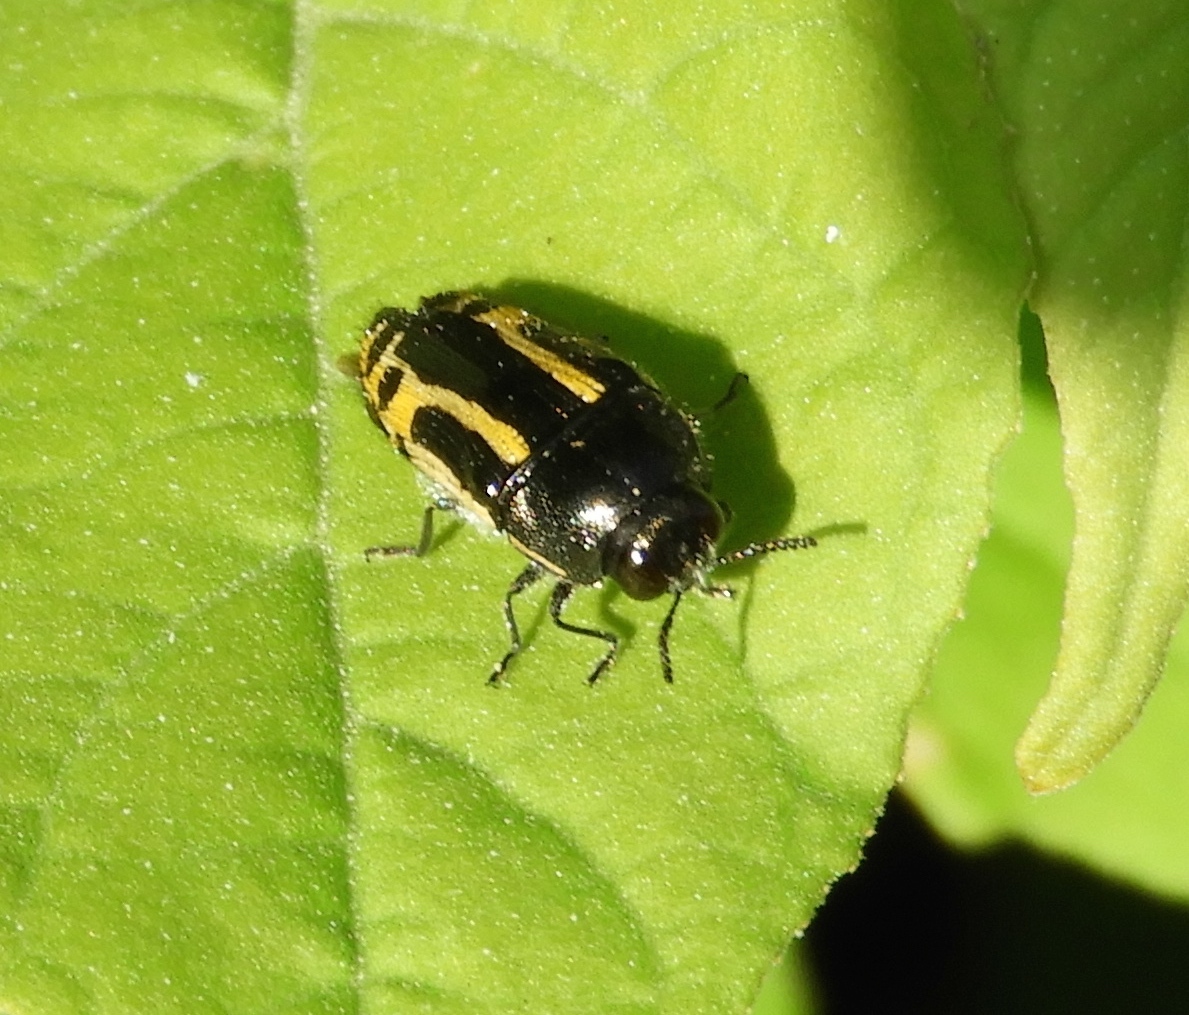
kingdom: Animalia
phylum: Arthropoda
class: Insecta
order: Coleoptera
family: Buprestidae
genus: Acmaeodera
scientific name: Acmaeodera scalaris
